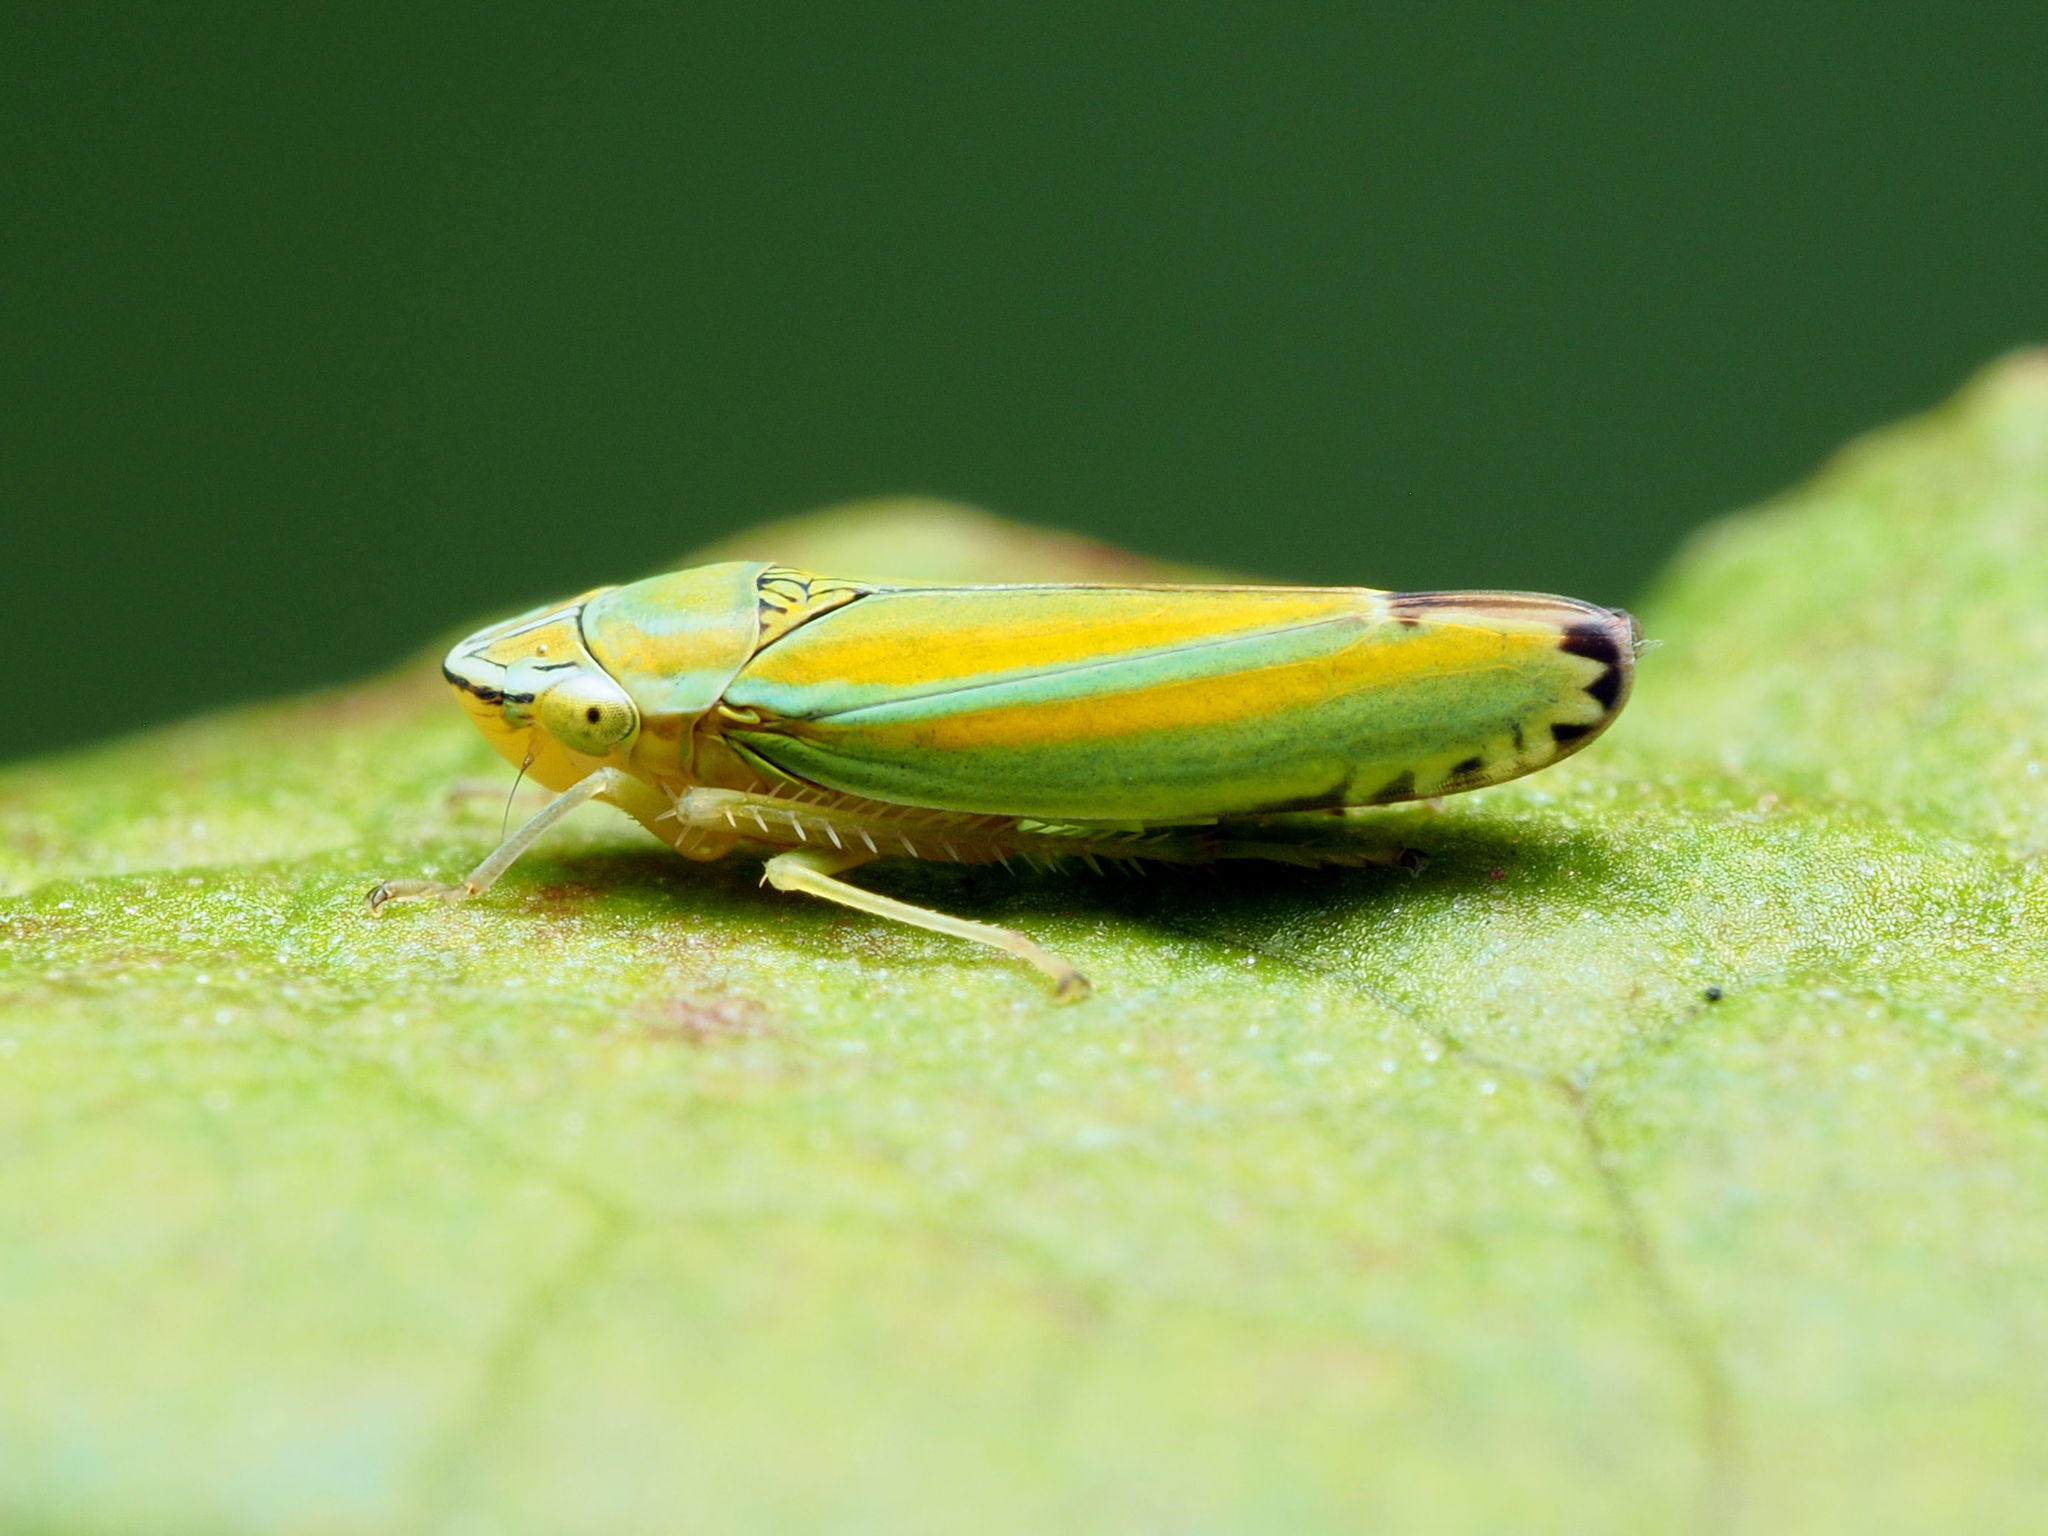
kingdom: Animalia
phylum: Arthropoda
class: Insecta
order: Hemiptera
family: Cicadellidae
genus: Graphocephala
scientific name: Graphocephala versuta
